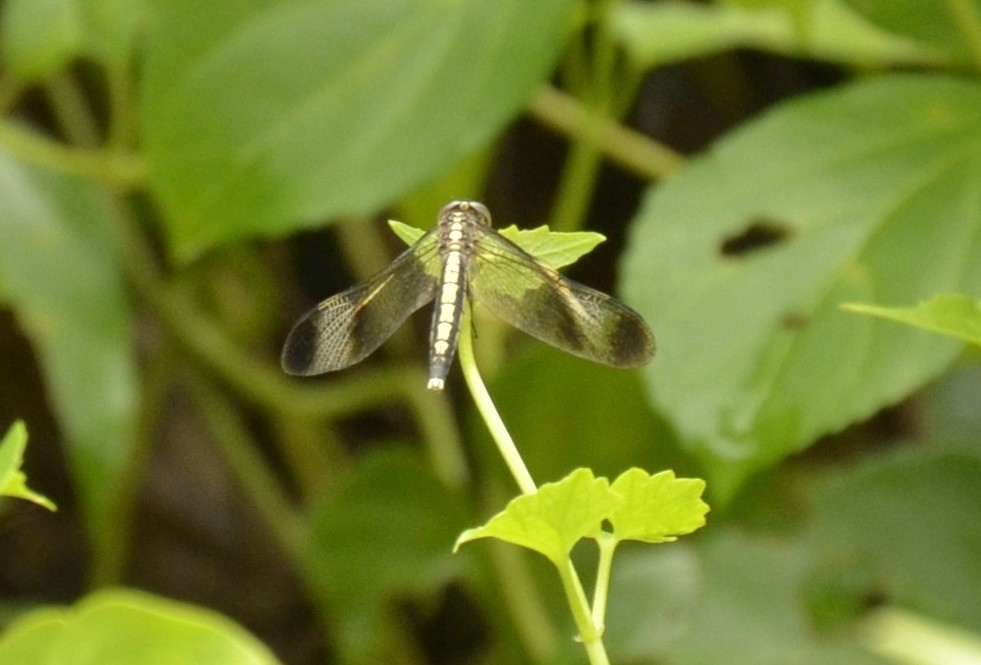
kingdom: Animalia
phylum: Arthropoda
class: Insecta
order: Odonata
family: Libellulidae
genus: Neurothemis
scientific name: Neurothemis tullia
